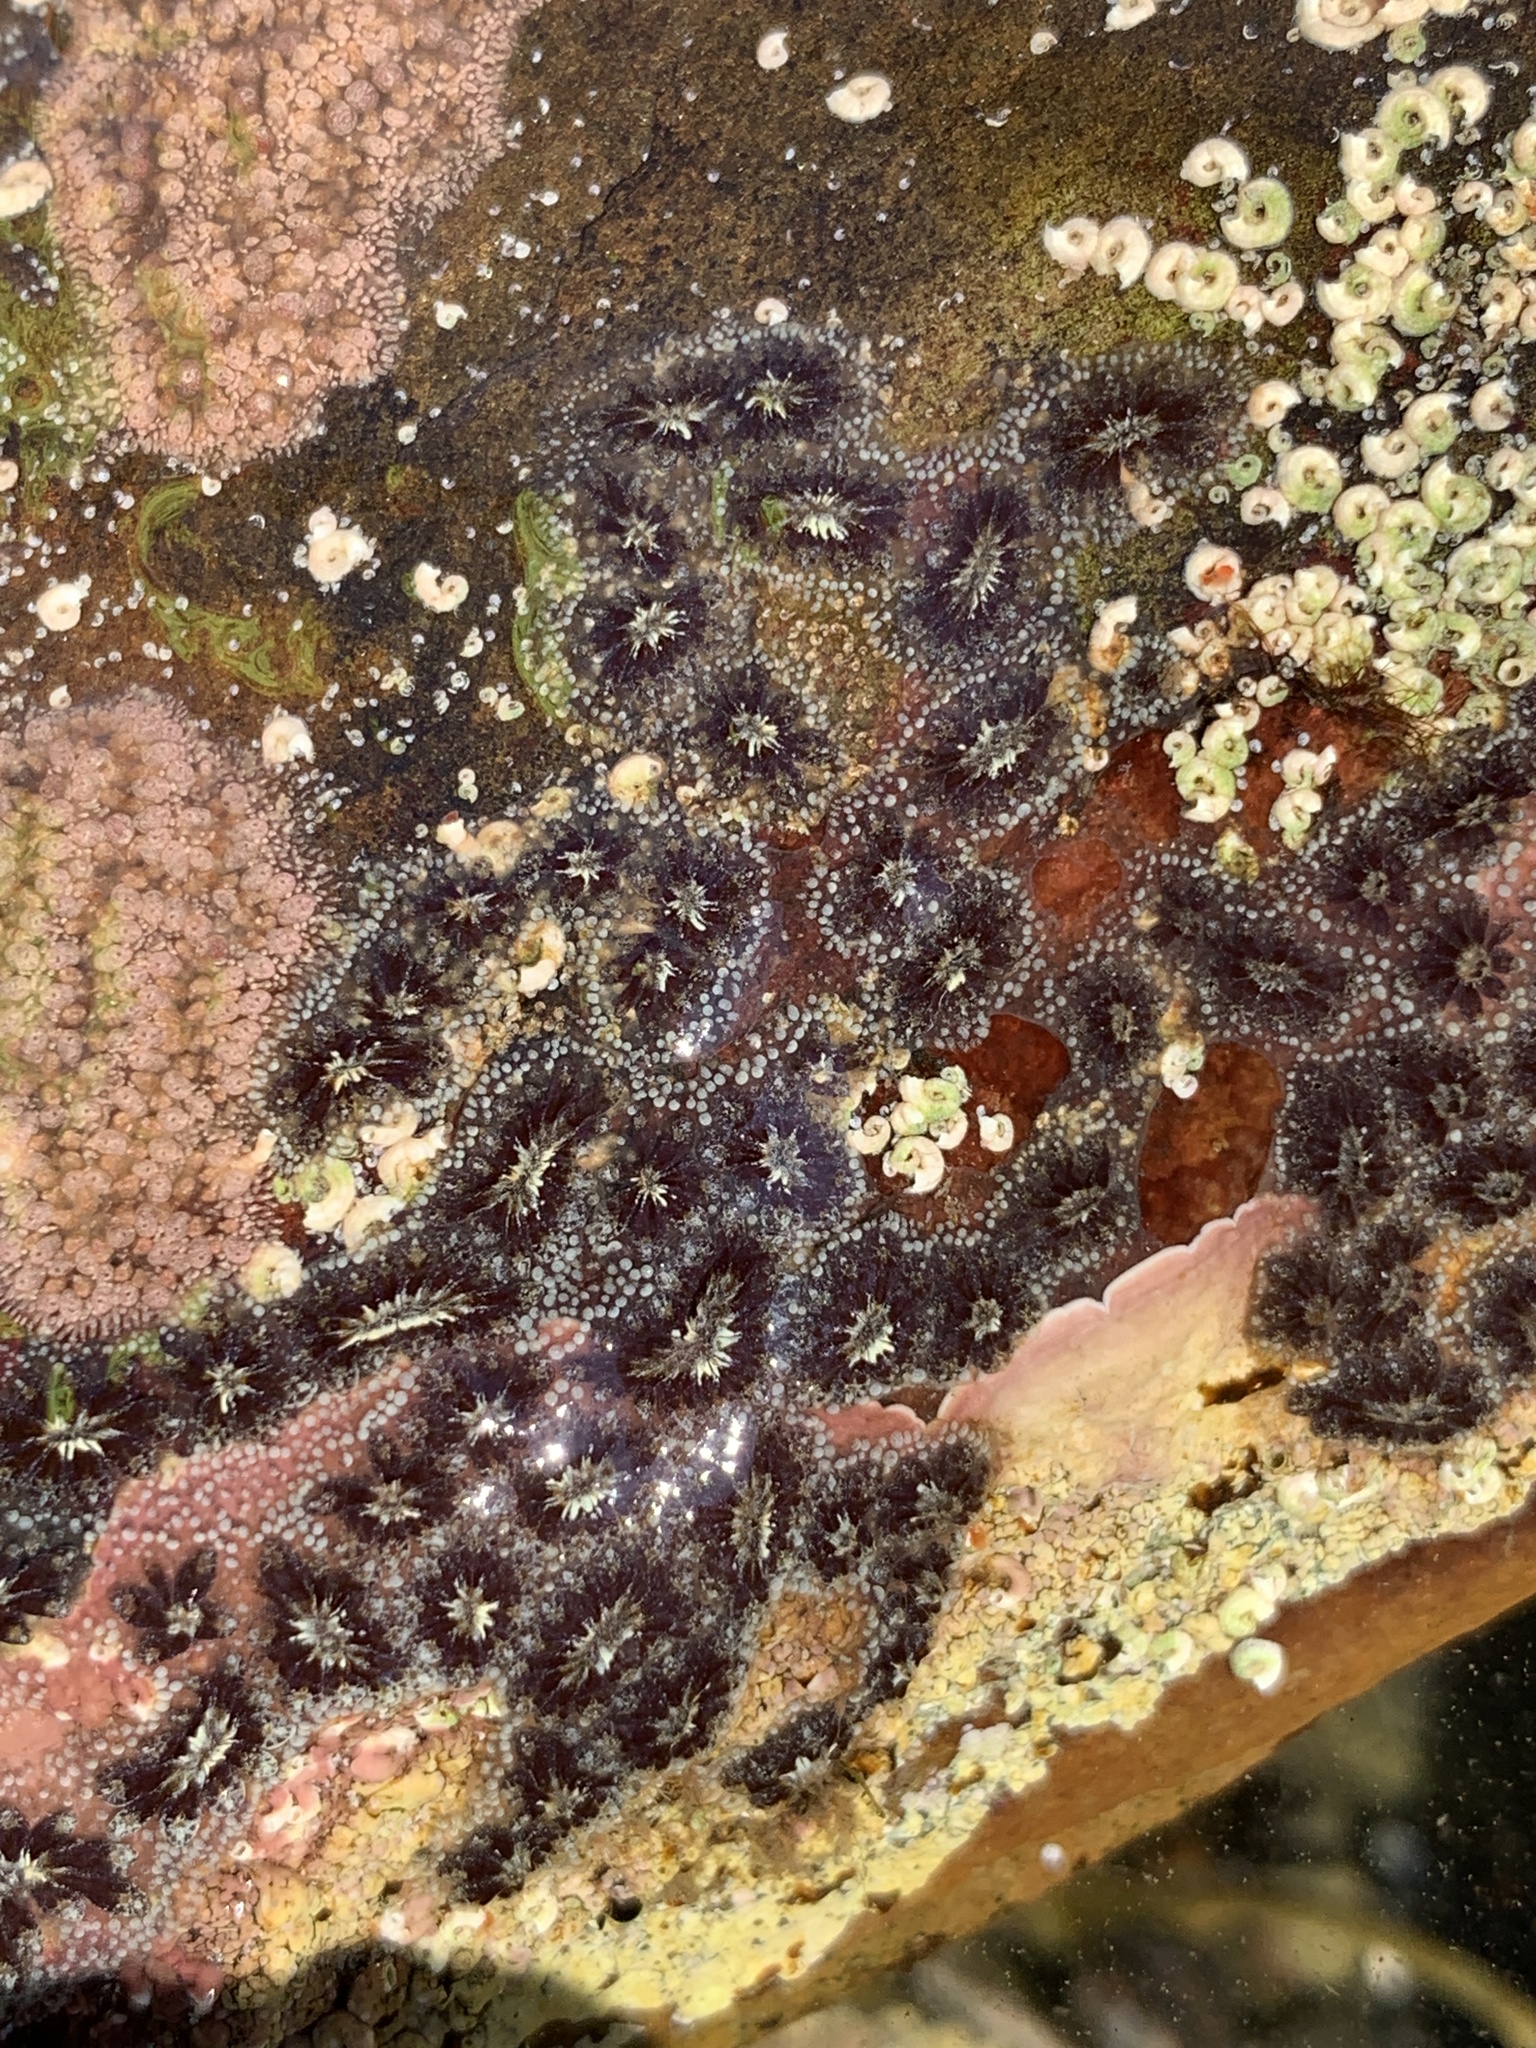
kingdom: Animalia
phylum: Chordata
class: Ascidiacea
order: Stolidobranchia
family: Styelidae
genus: Botryllus
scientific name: Botryllus schlosseri
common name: Golden star tunicate
